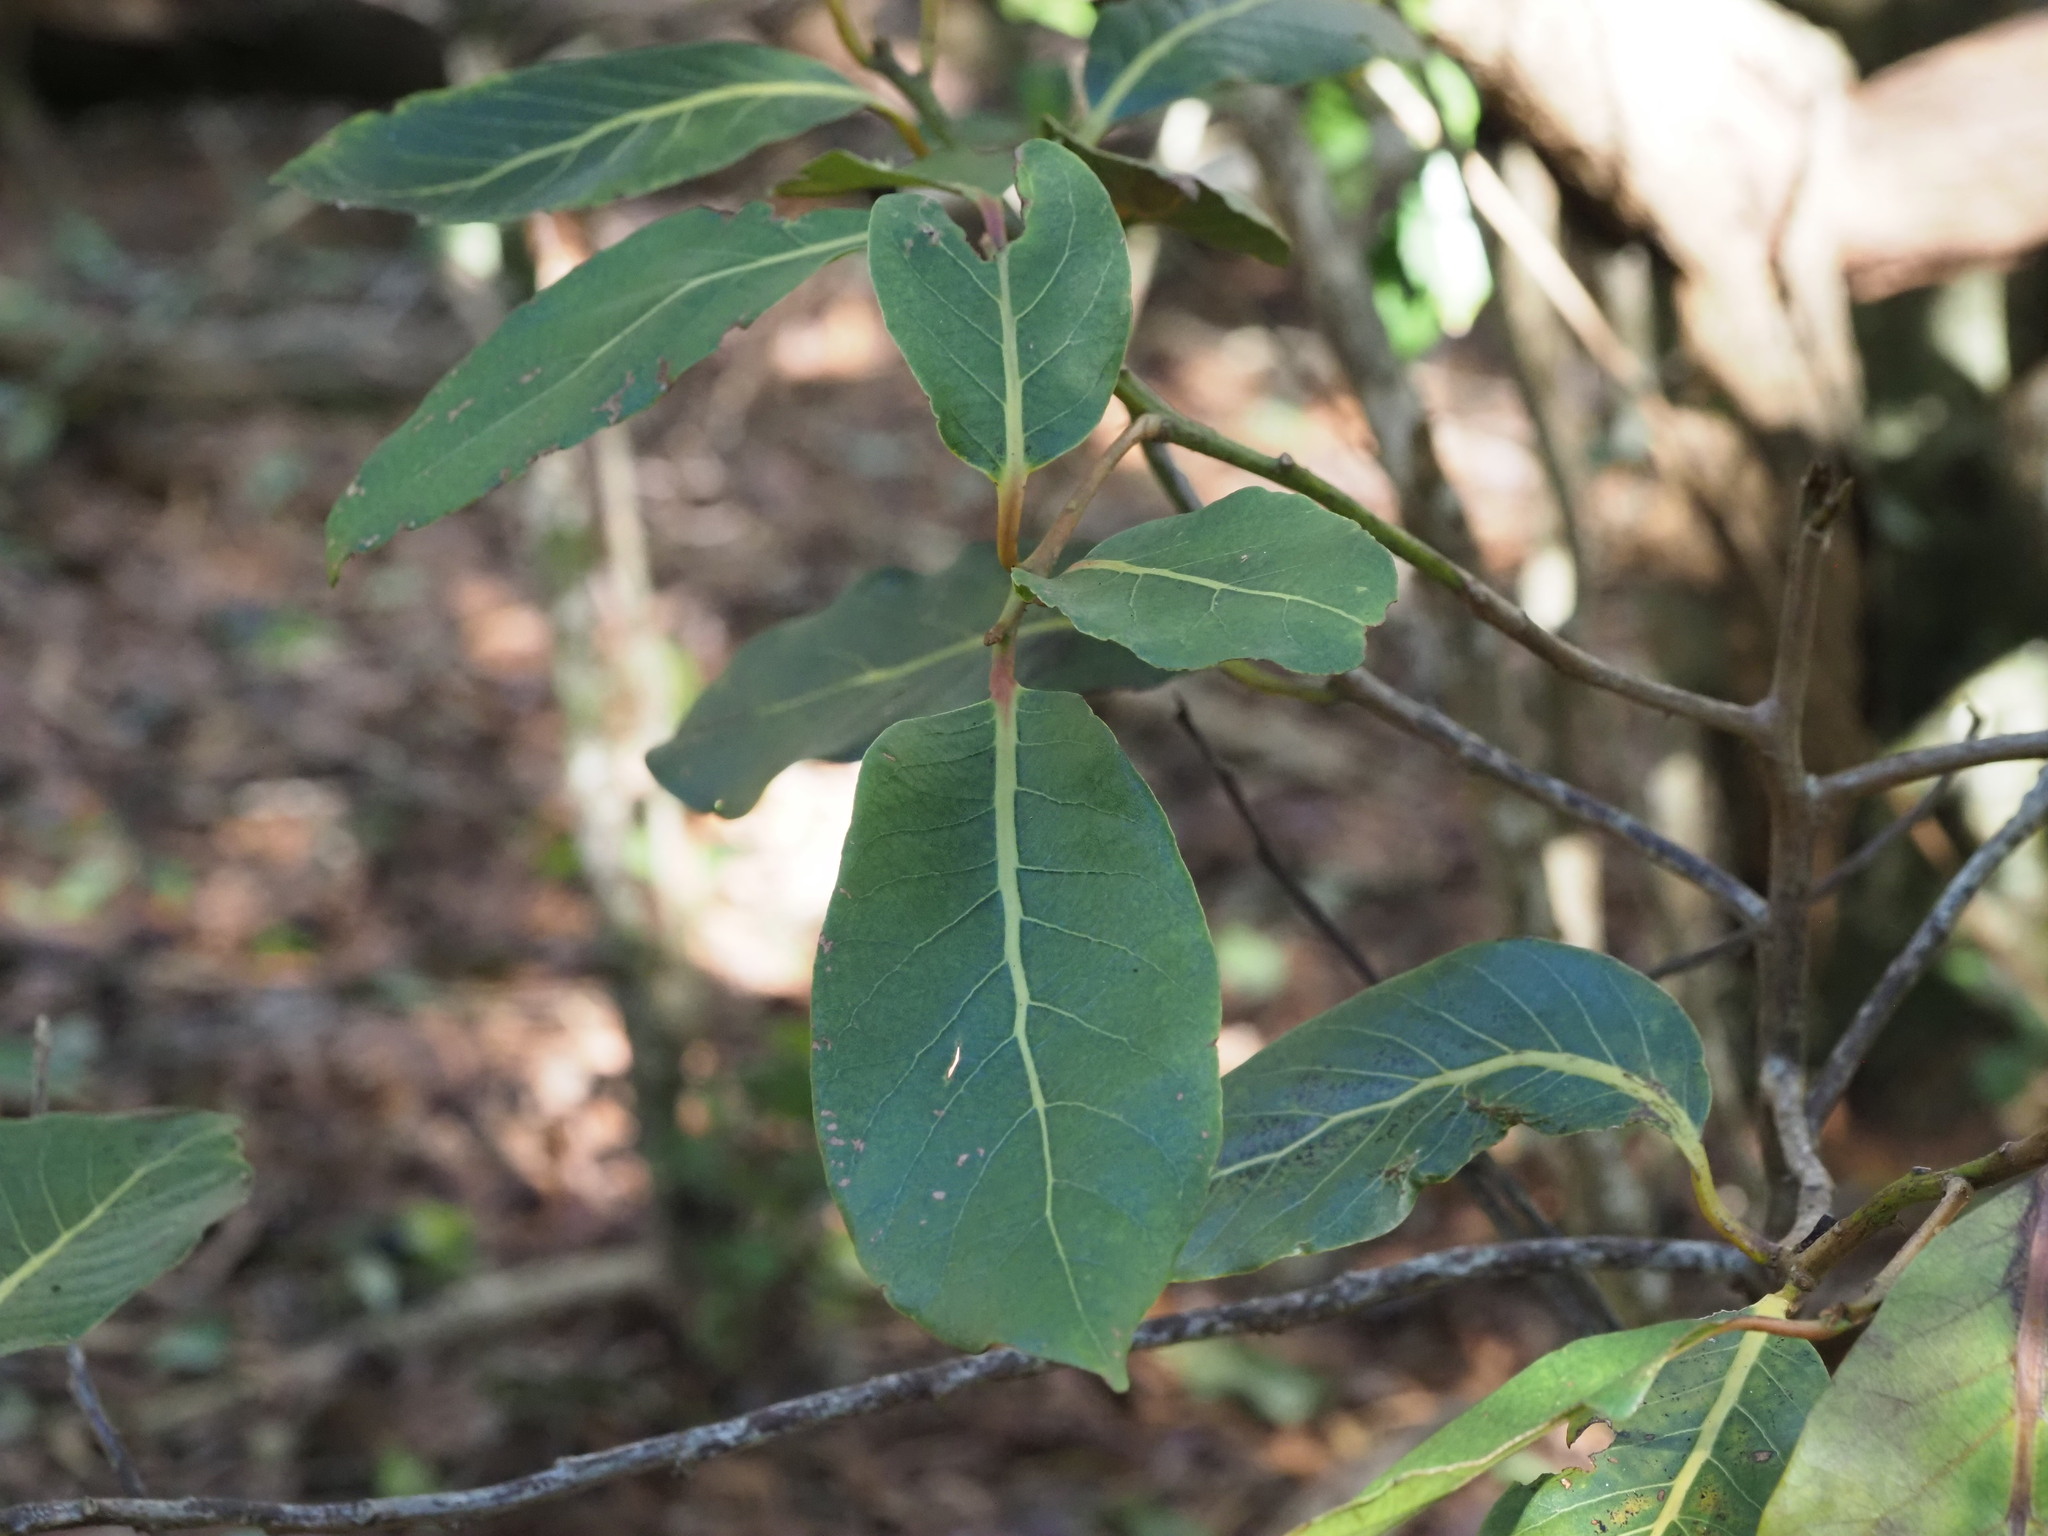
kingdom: Plantae
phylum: Tracheophyta
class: Magnoliopsida
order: Laurales
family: Lauraceae
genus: Cryptocarya
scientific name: Cryptocarya mannii
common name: Mann cryptocarya
